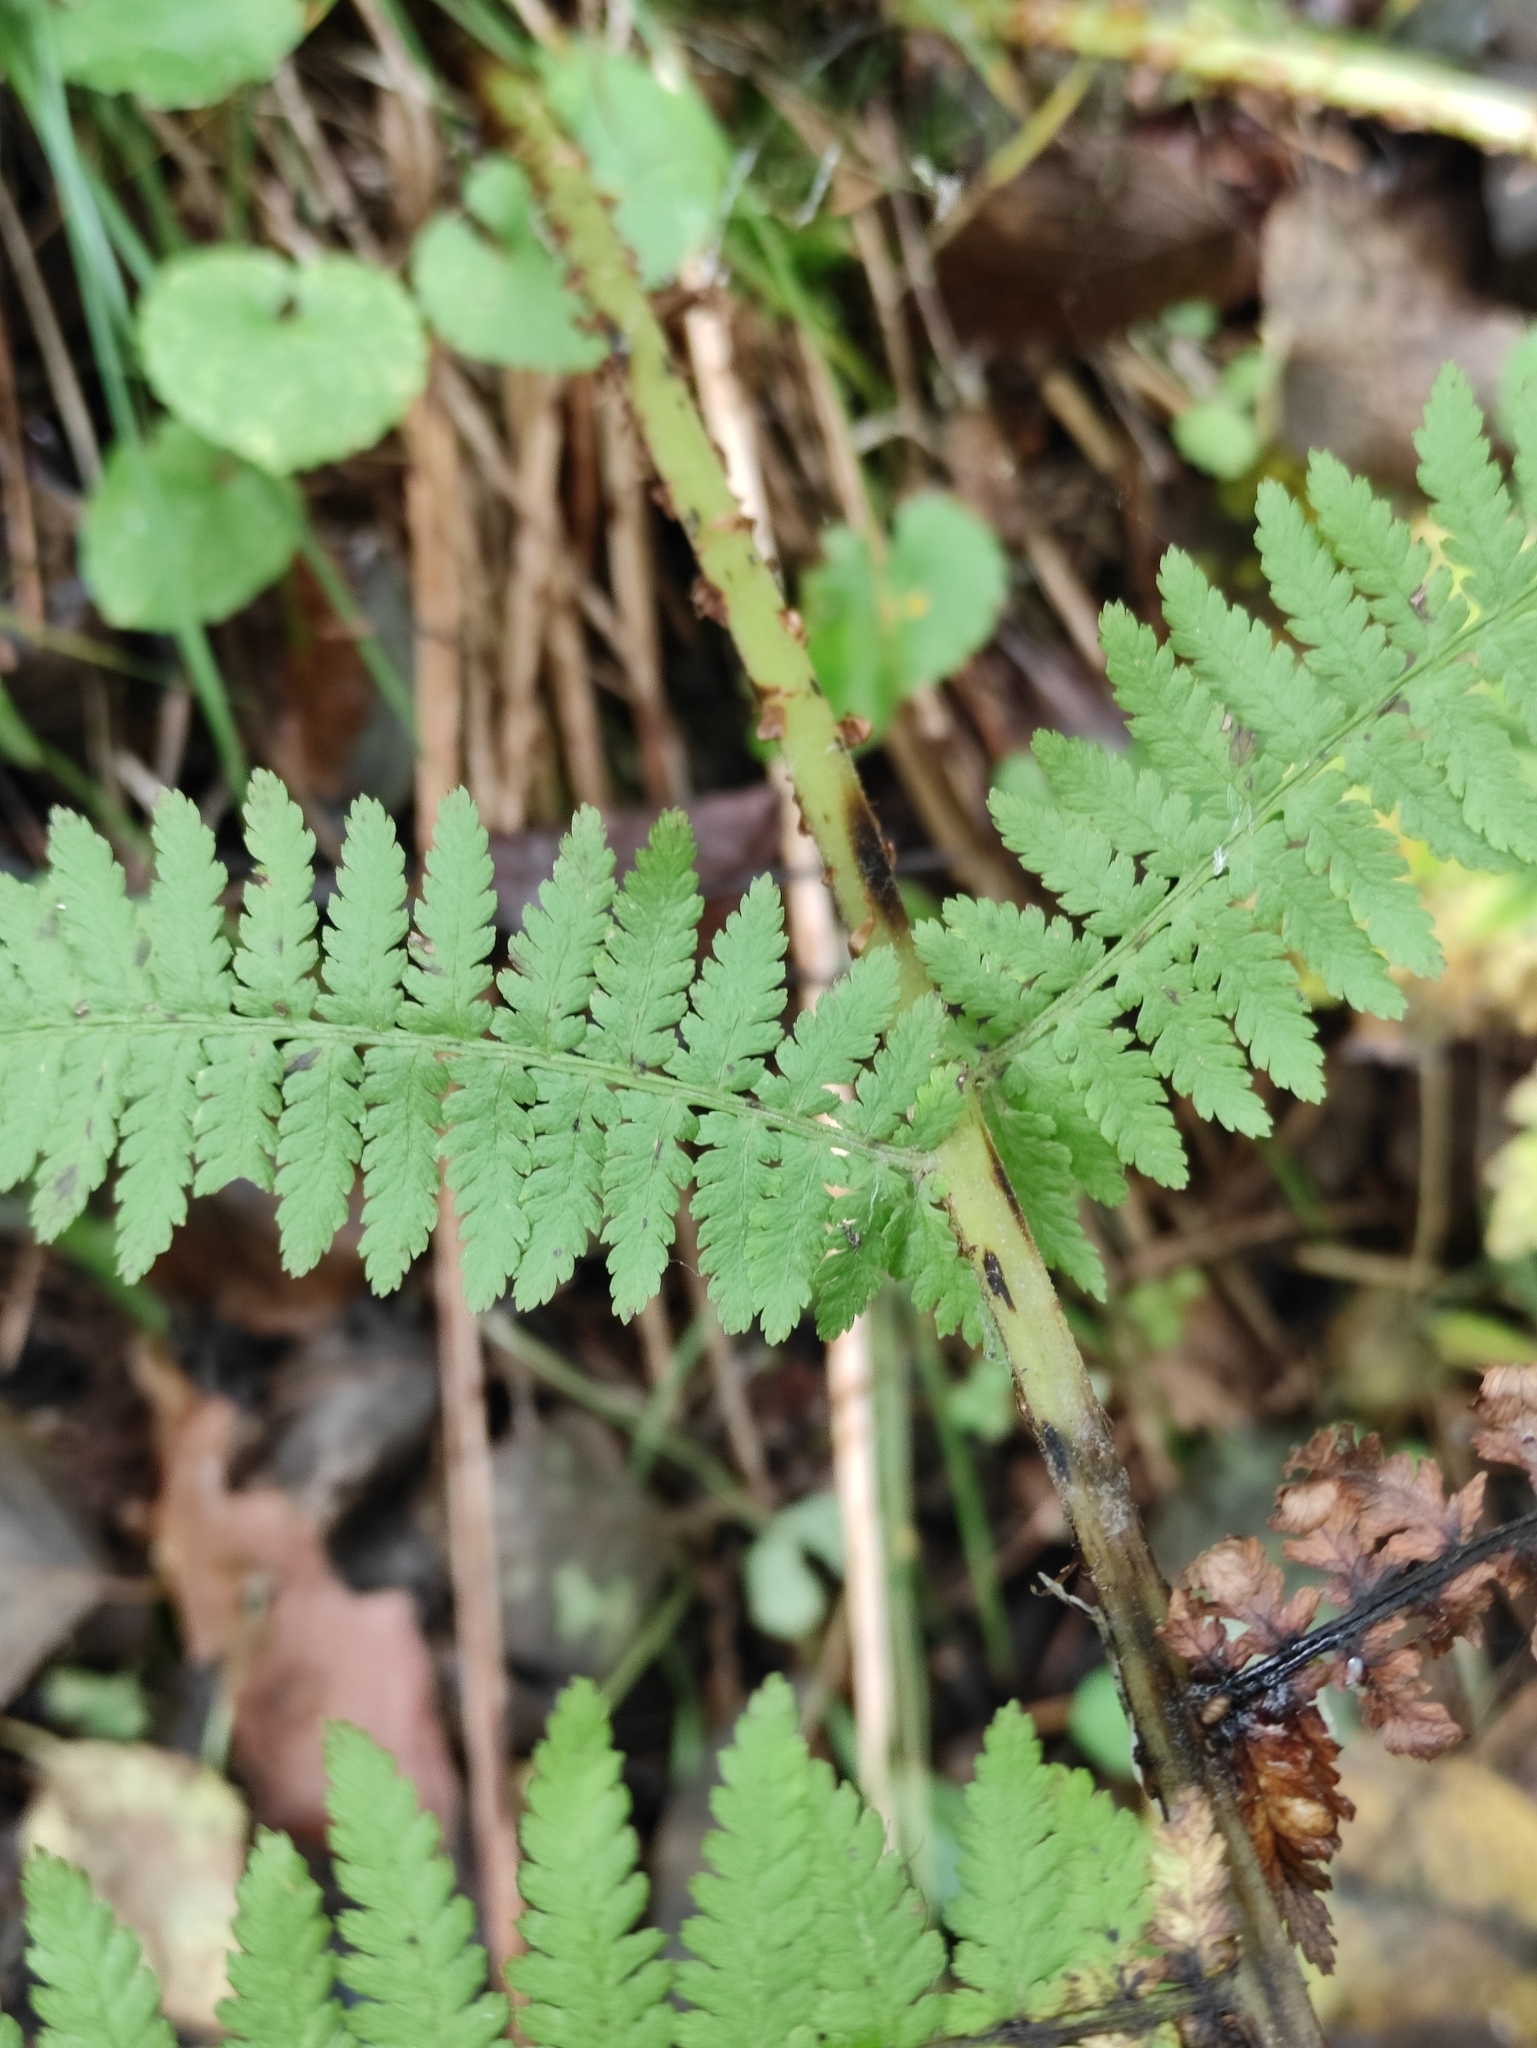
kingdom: Plantae
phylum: Tracheophyta
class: Polypodiopsida
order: Polypodiales
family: Athyriaceae
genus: Athyrium
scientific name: Athyrium filix-femina
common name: Lady fern
